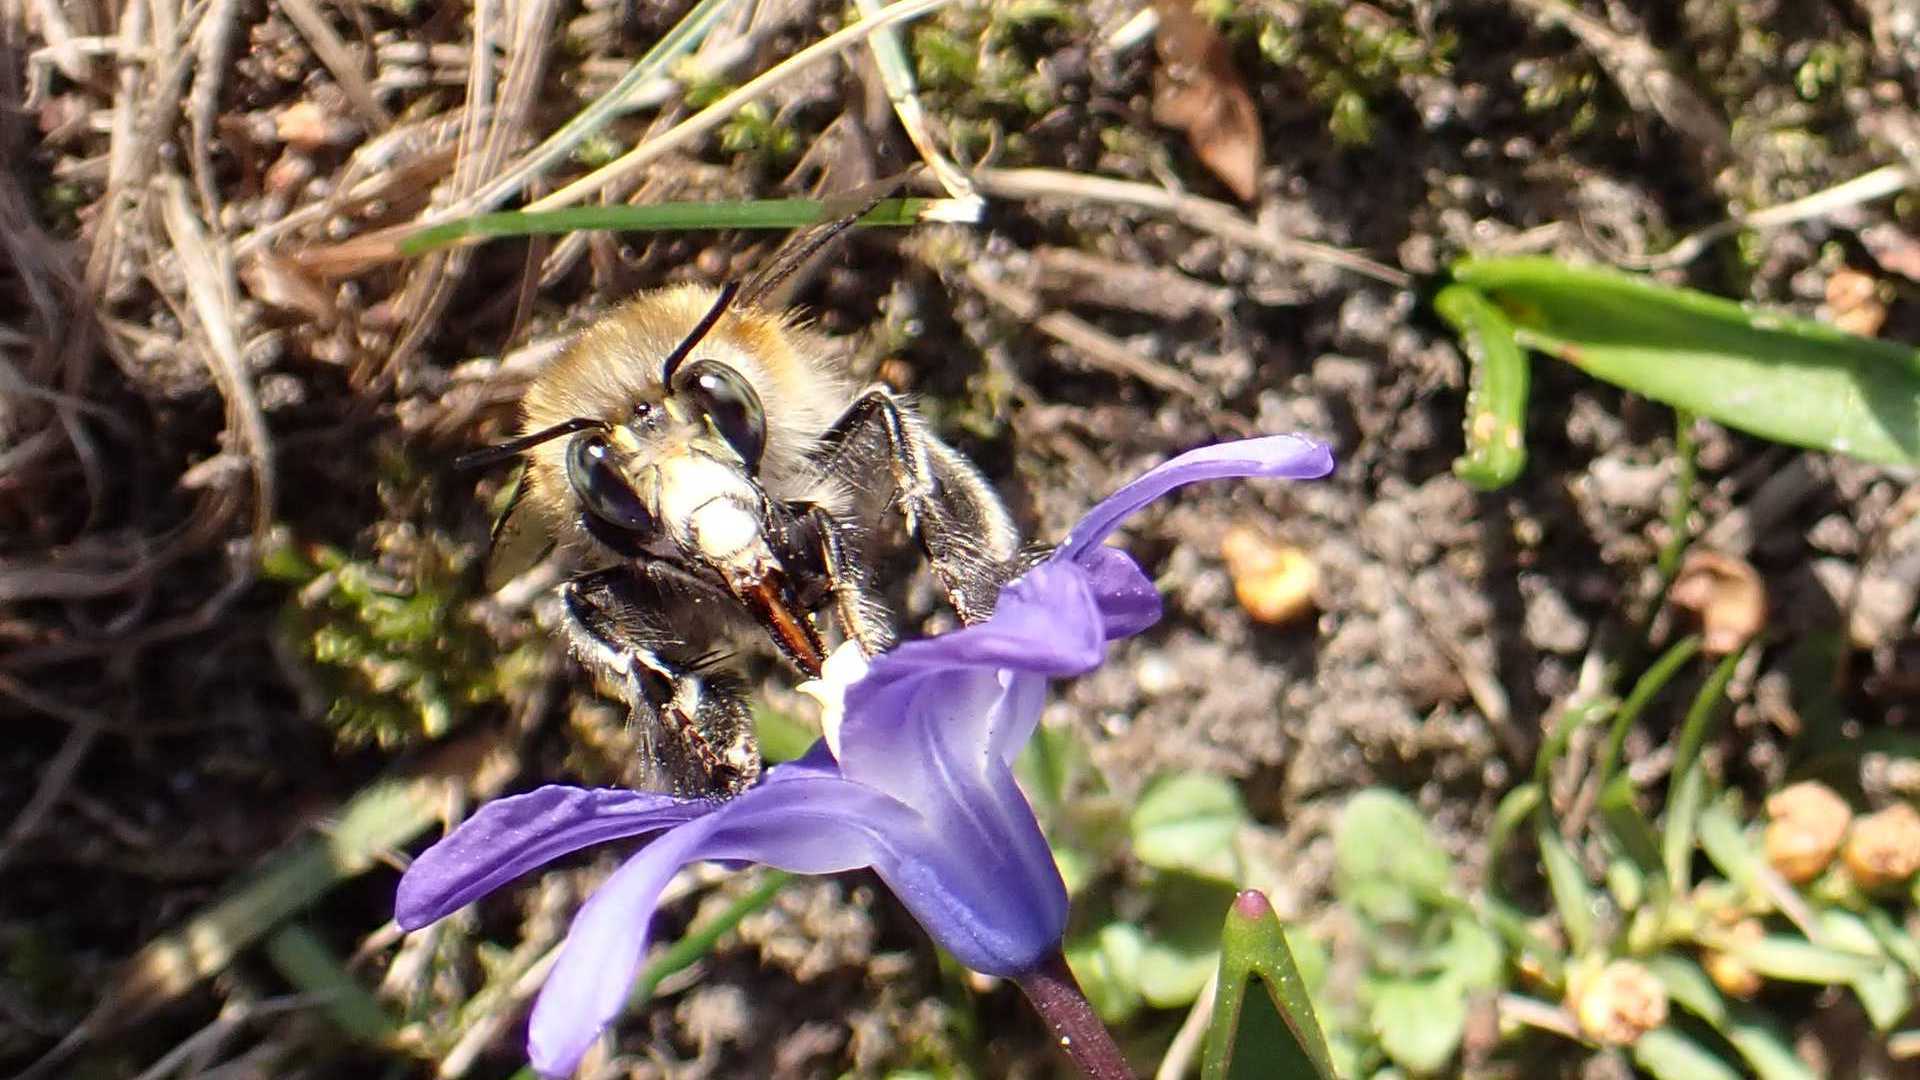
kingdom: Animalia
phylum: Arthropoda
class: Insecta
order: Hymenoptera
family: Apidae
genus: Anthophora
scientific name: Anthophora plumipes
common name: Hairy-footed flower bee
